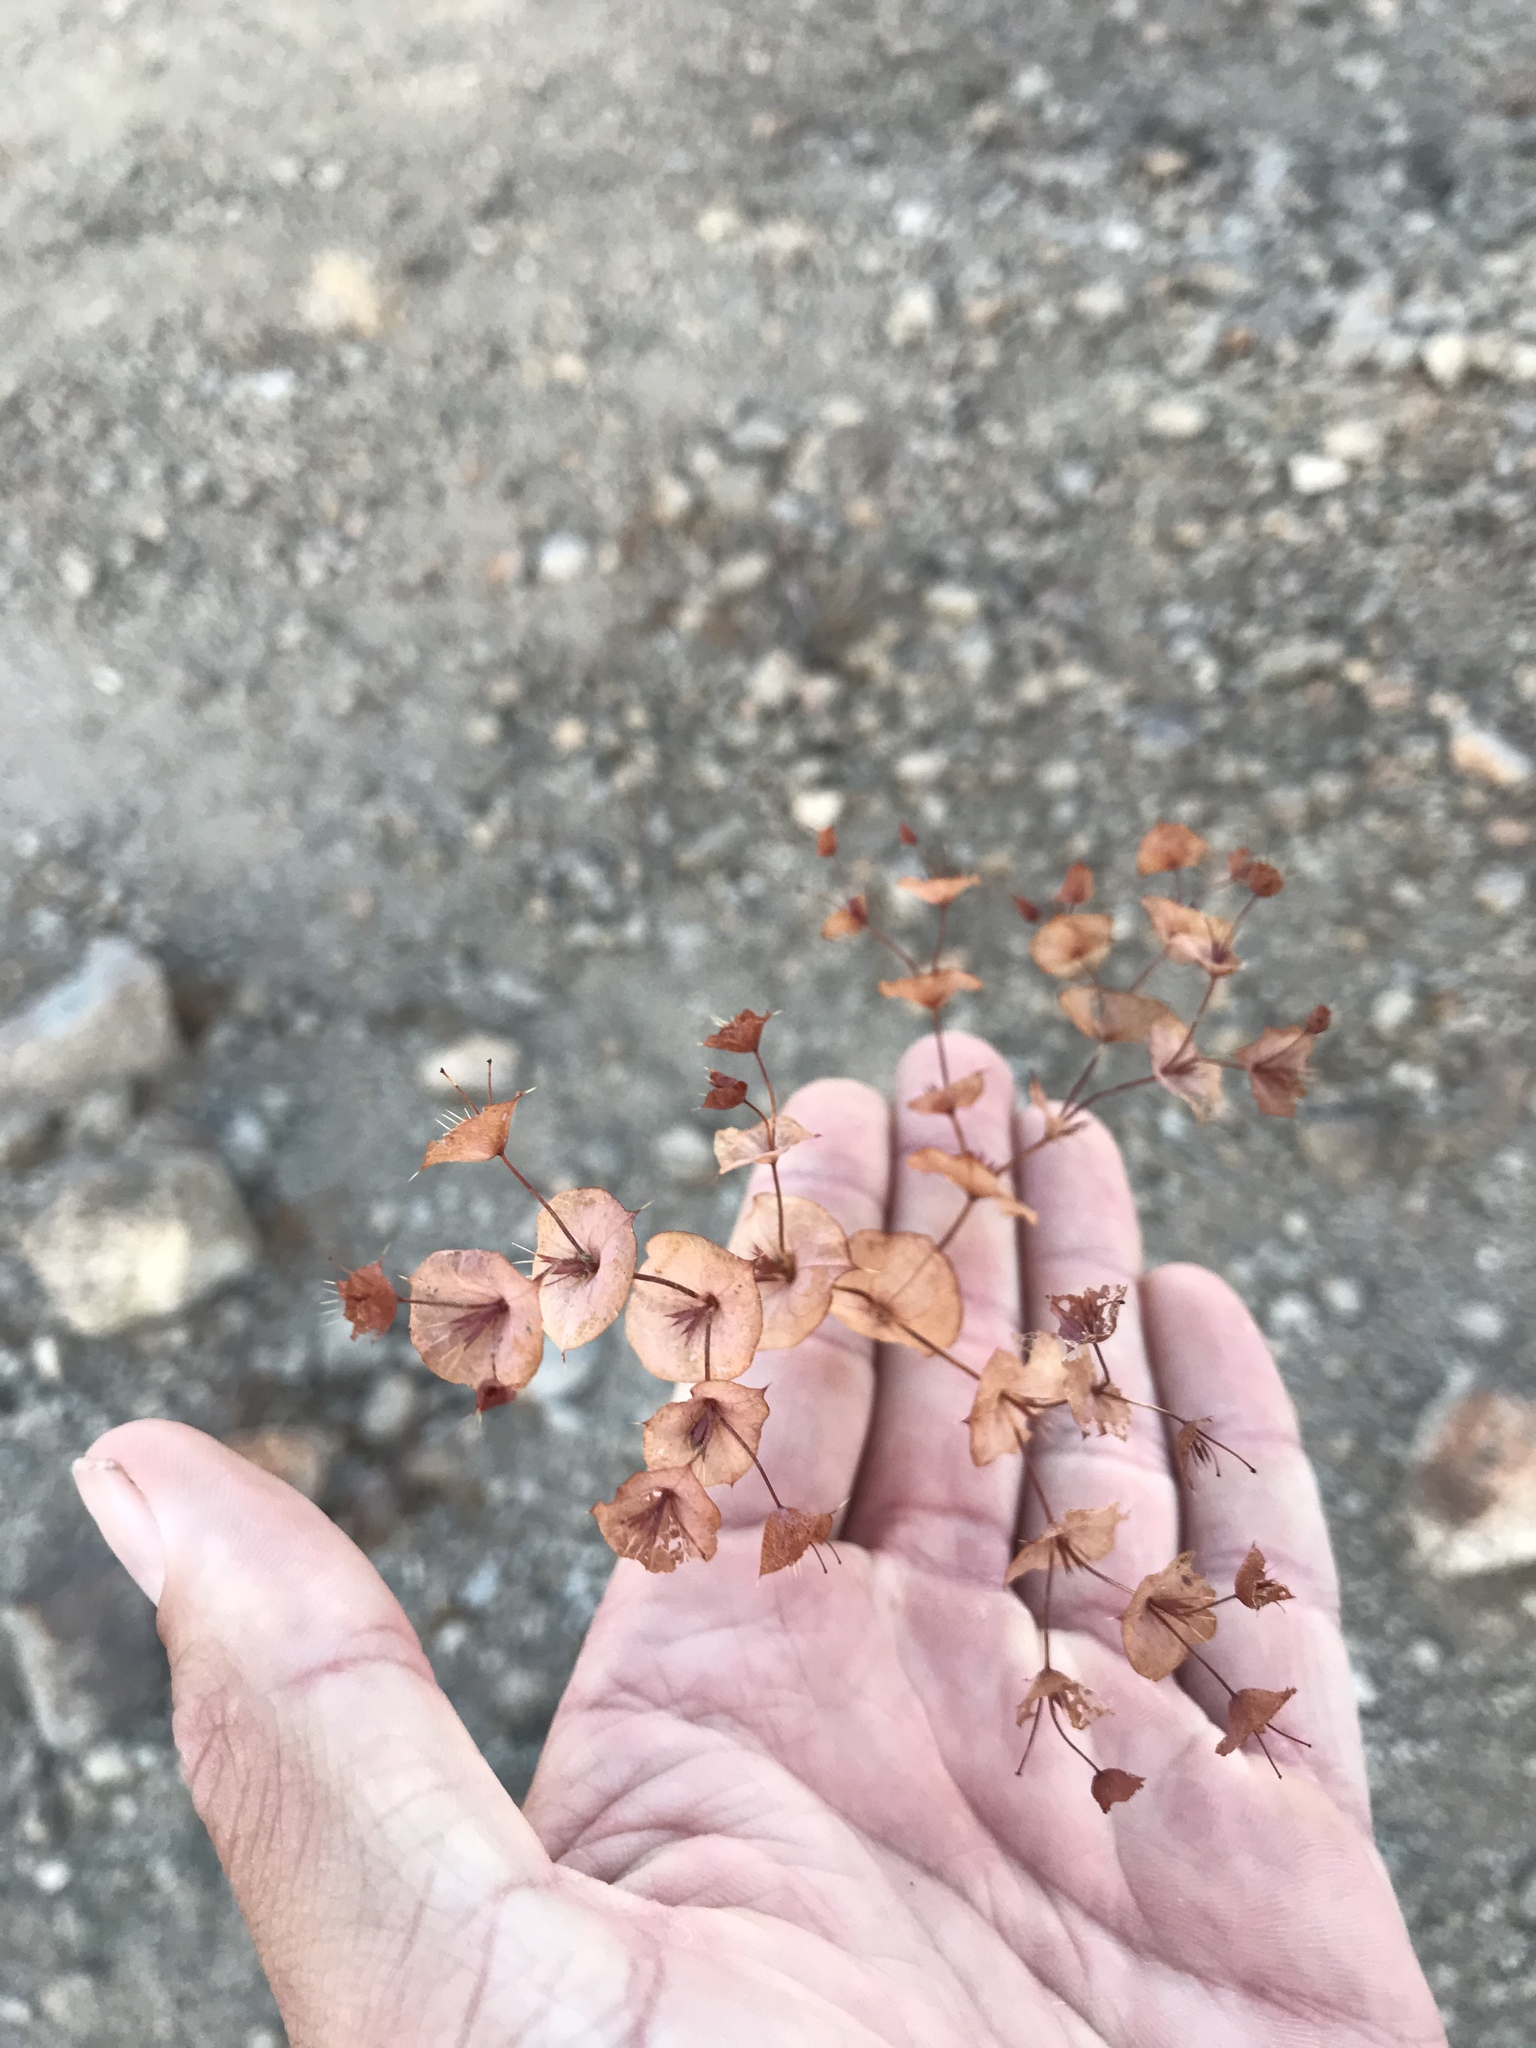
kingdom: Plantae
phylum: Tracheophyta
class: Magnoliopsida
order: Caryophyllales
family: Polygonaceae
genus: Oxytheca
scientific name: Oxytheca perfoliata
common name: Round-leaf puncturebract
